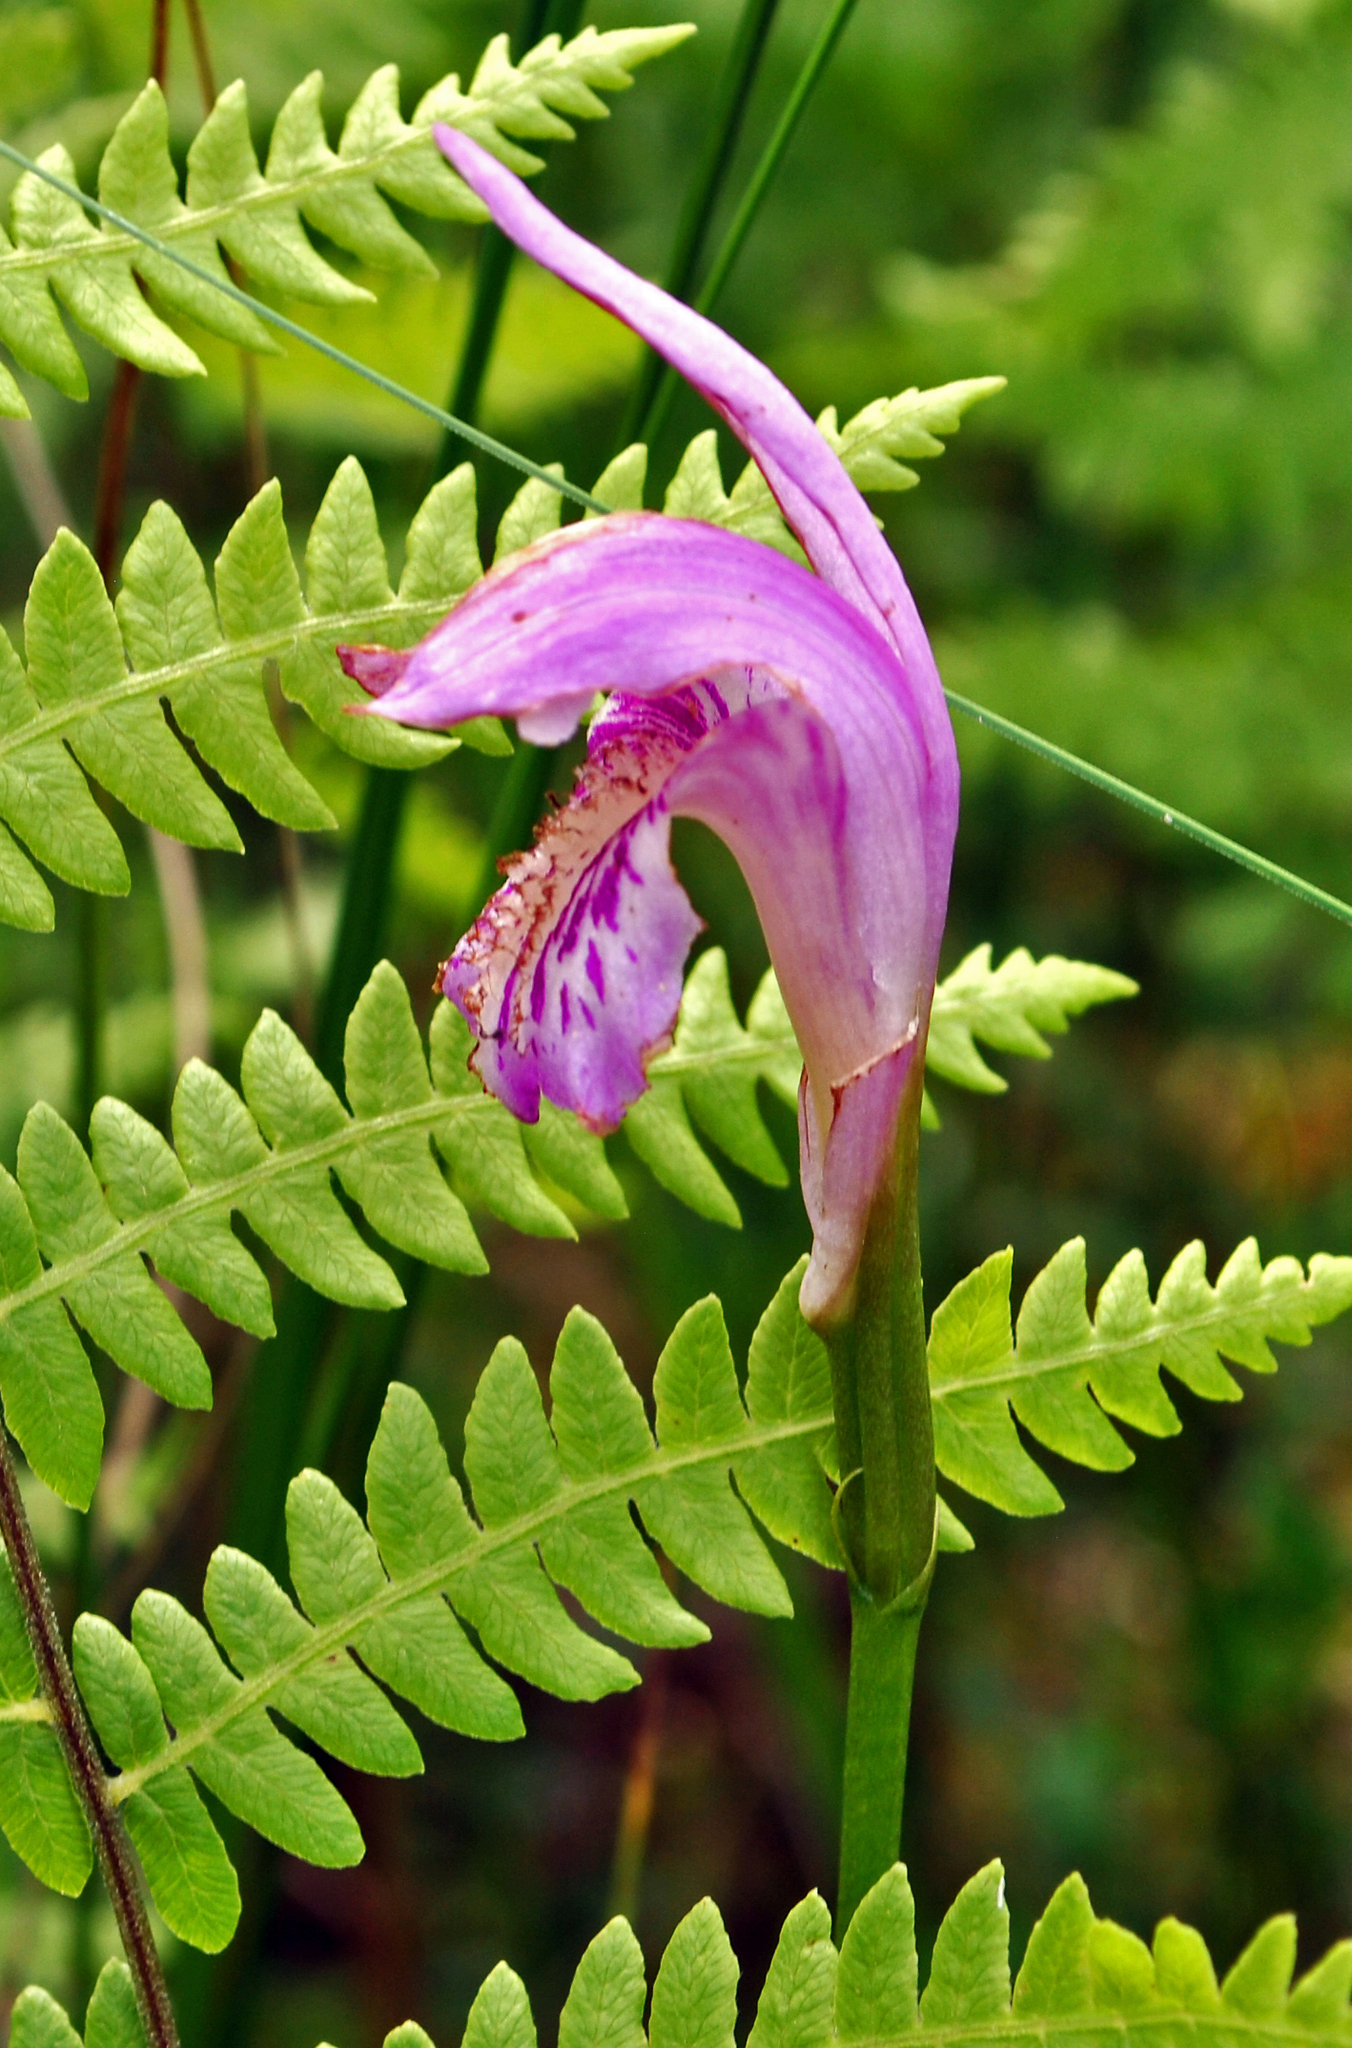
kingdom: Plantae
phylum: Tracheophyta
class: Liliopsida
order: Asparagales
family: Orchidaceae
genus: Arethusa
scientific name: Arethusa bulbosa
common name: Arethusa
